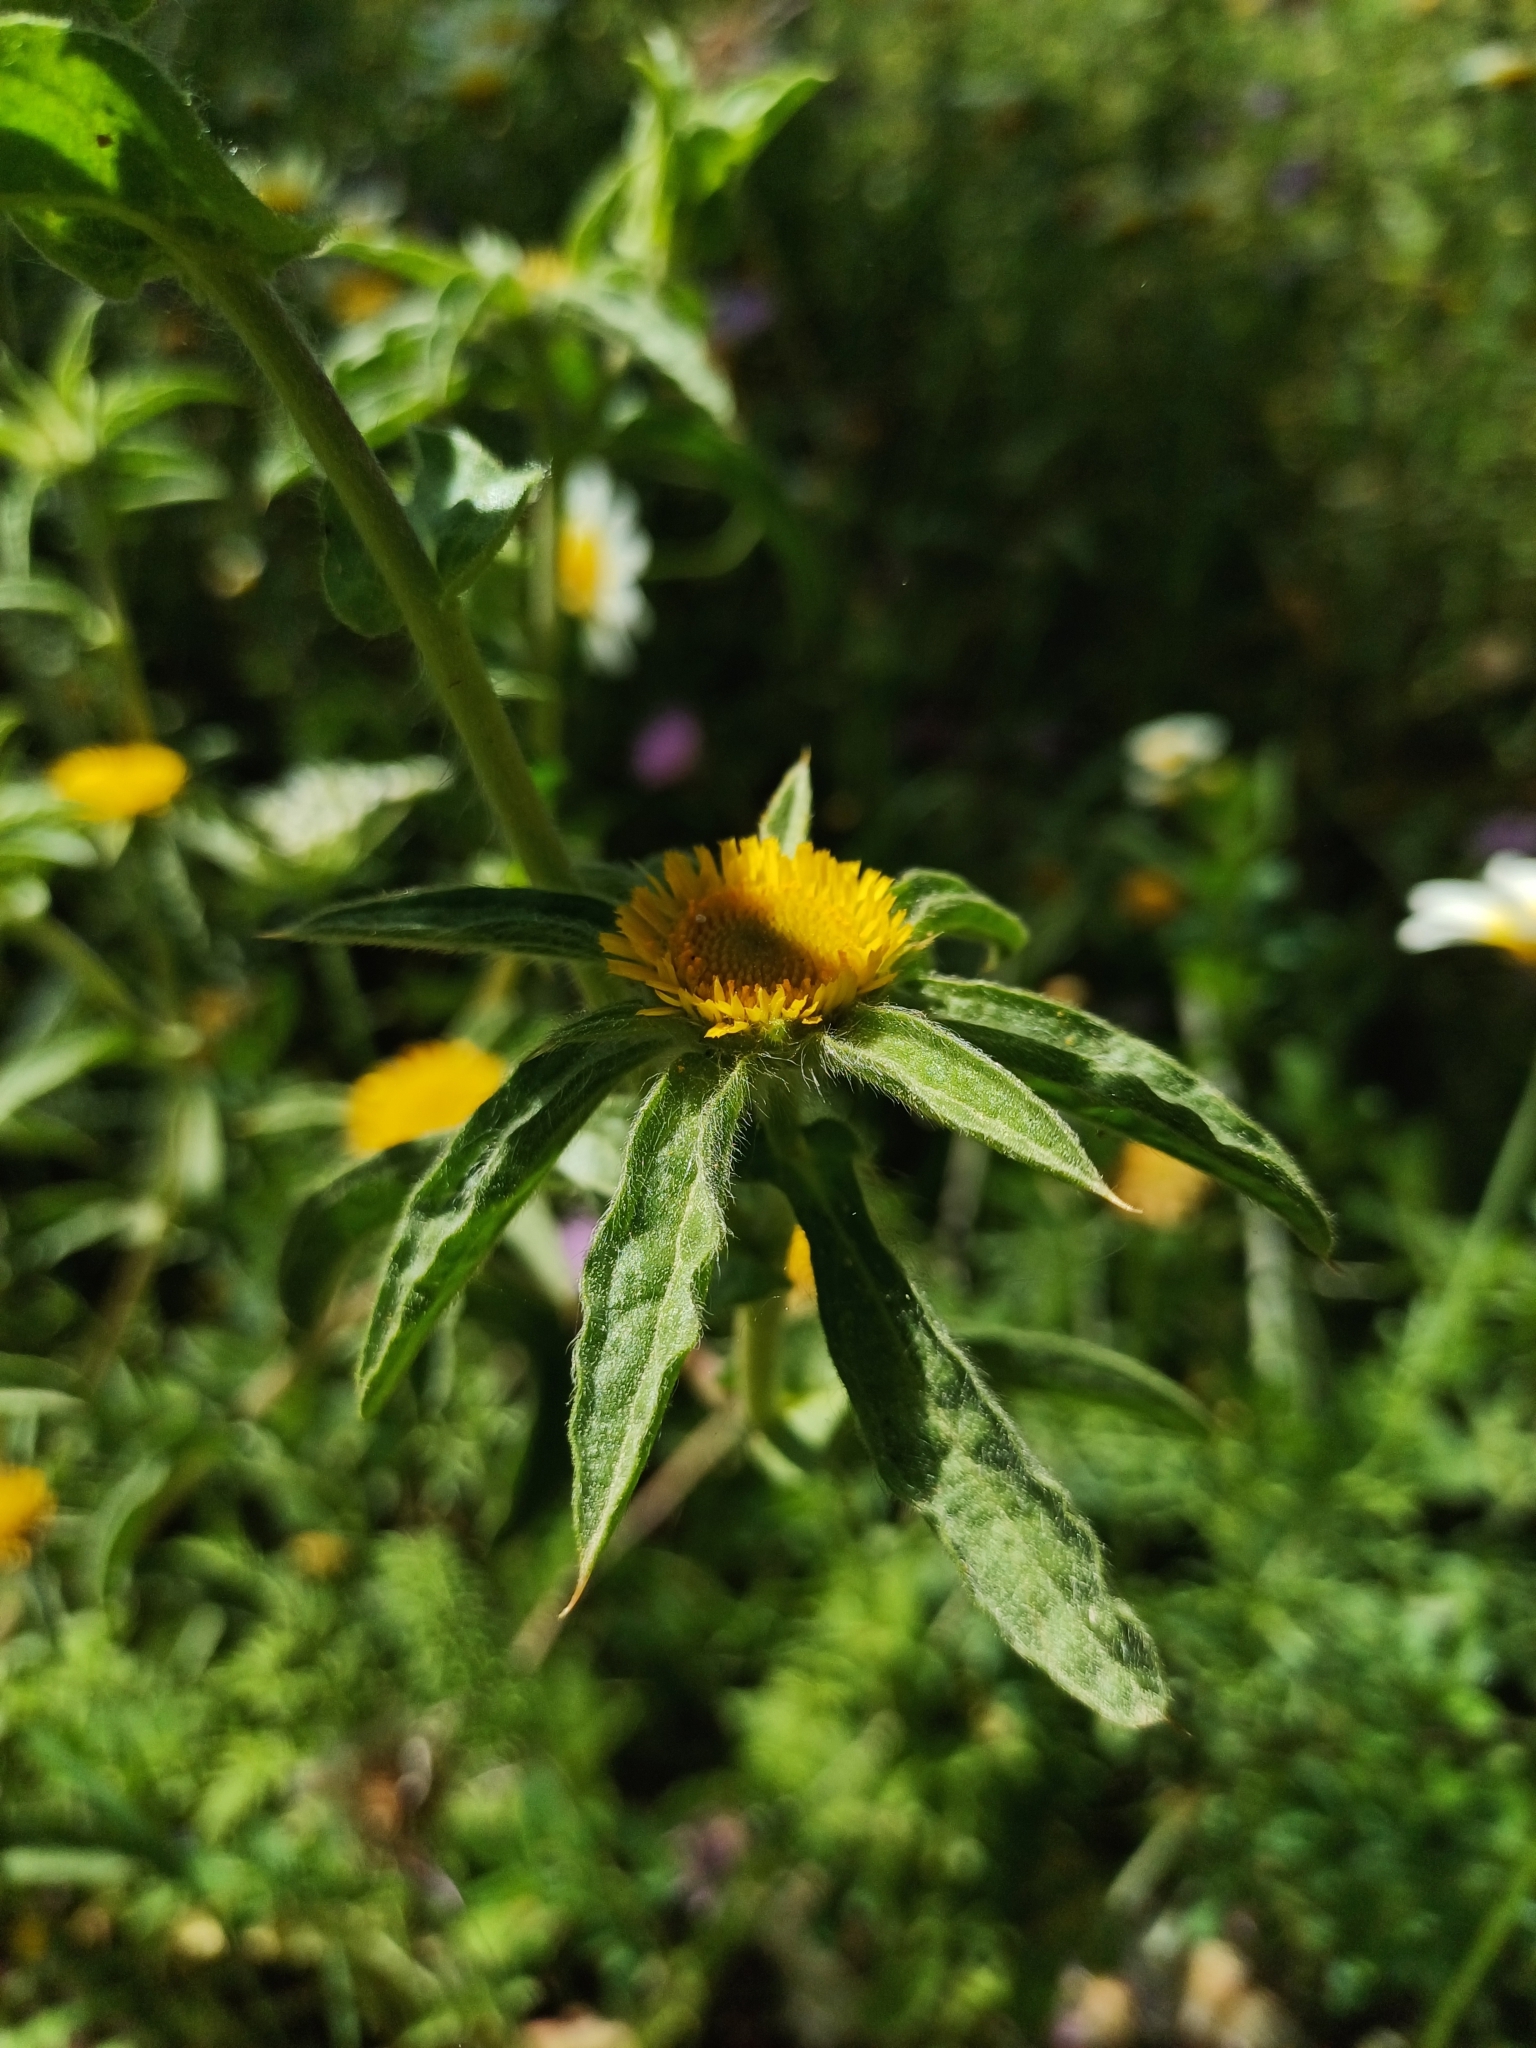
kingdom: Plantae
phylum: Tracheophyta
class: Magnoliopsida
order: Asterales
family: Asteraceae
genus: Pallenis
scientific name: Pallenis spinosa
